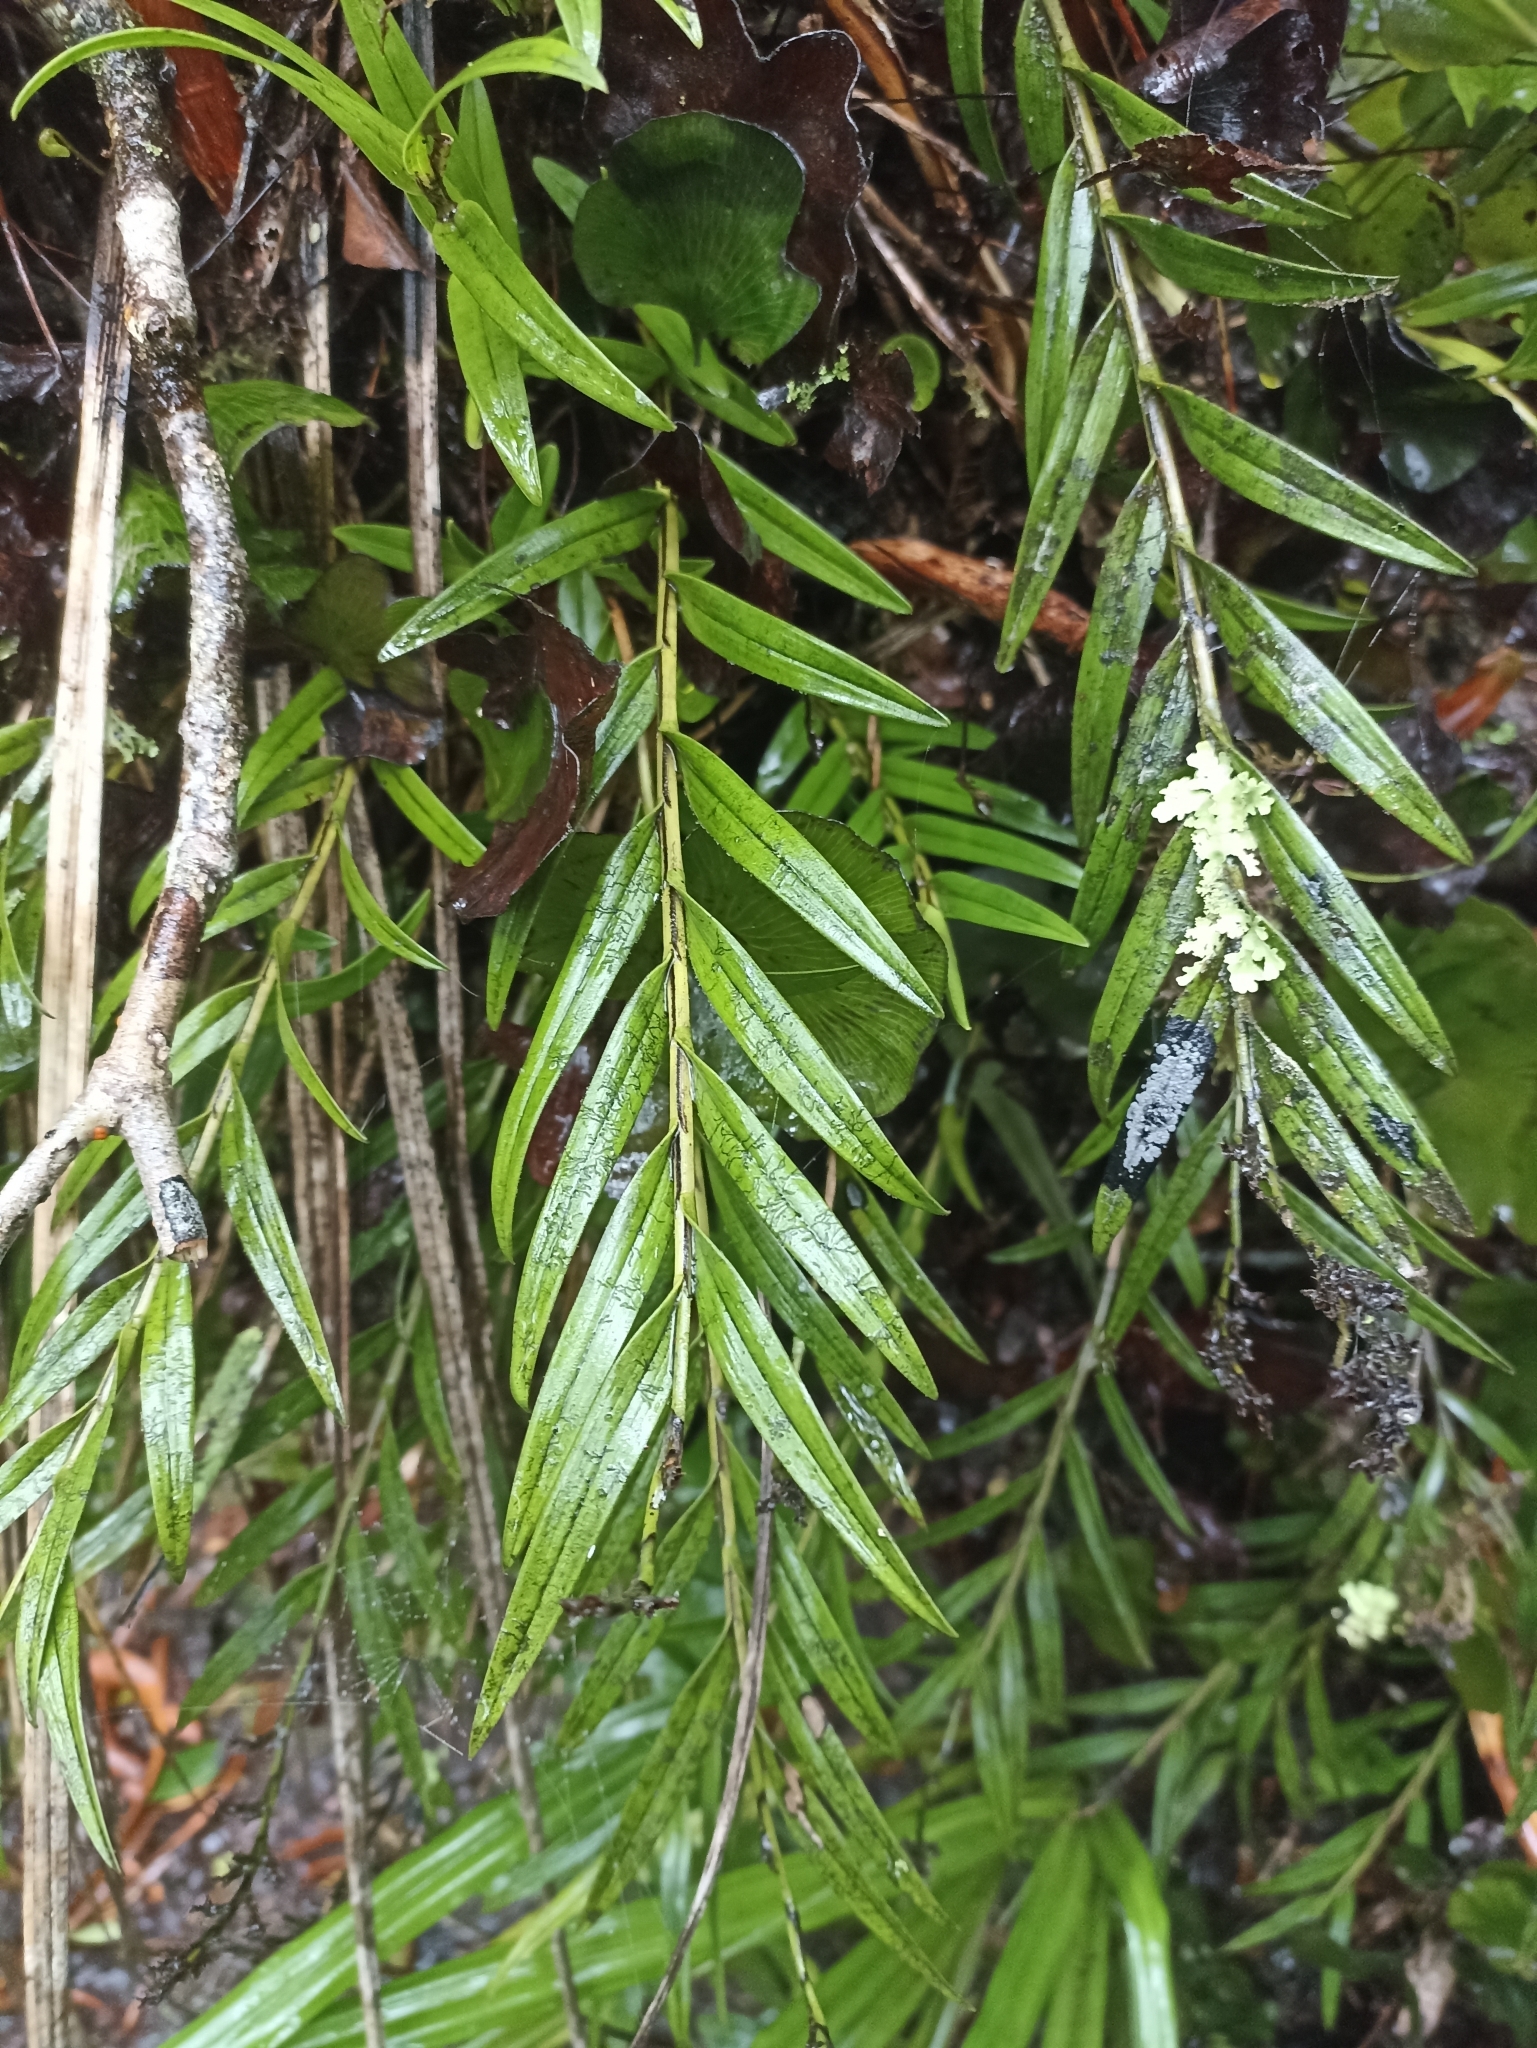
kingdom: Plantae
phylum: Tracheophyta
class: Liliopsida
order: Asparagales
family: Orchidaceae
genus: Earina
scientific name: Earina autumnalis
